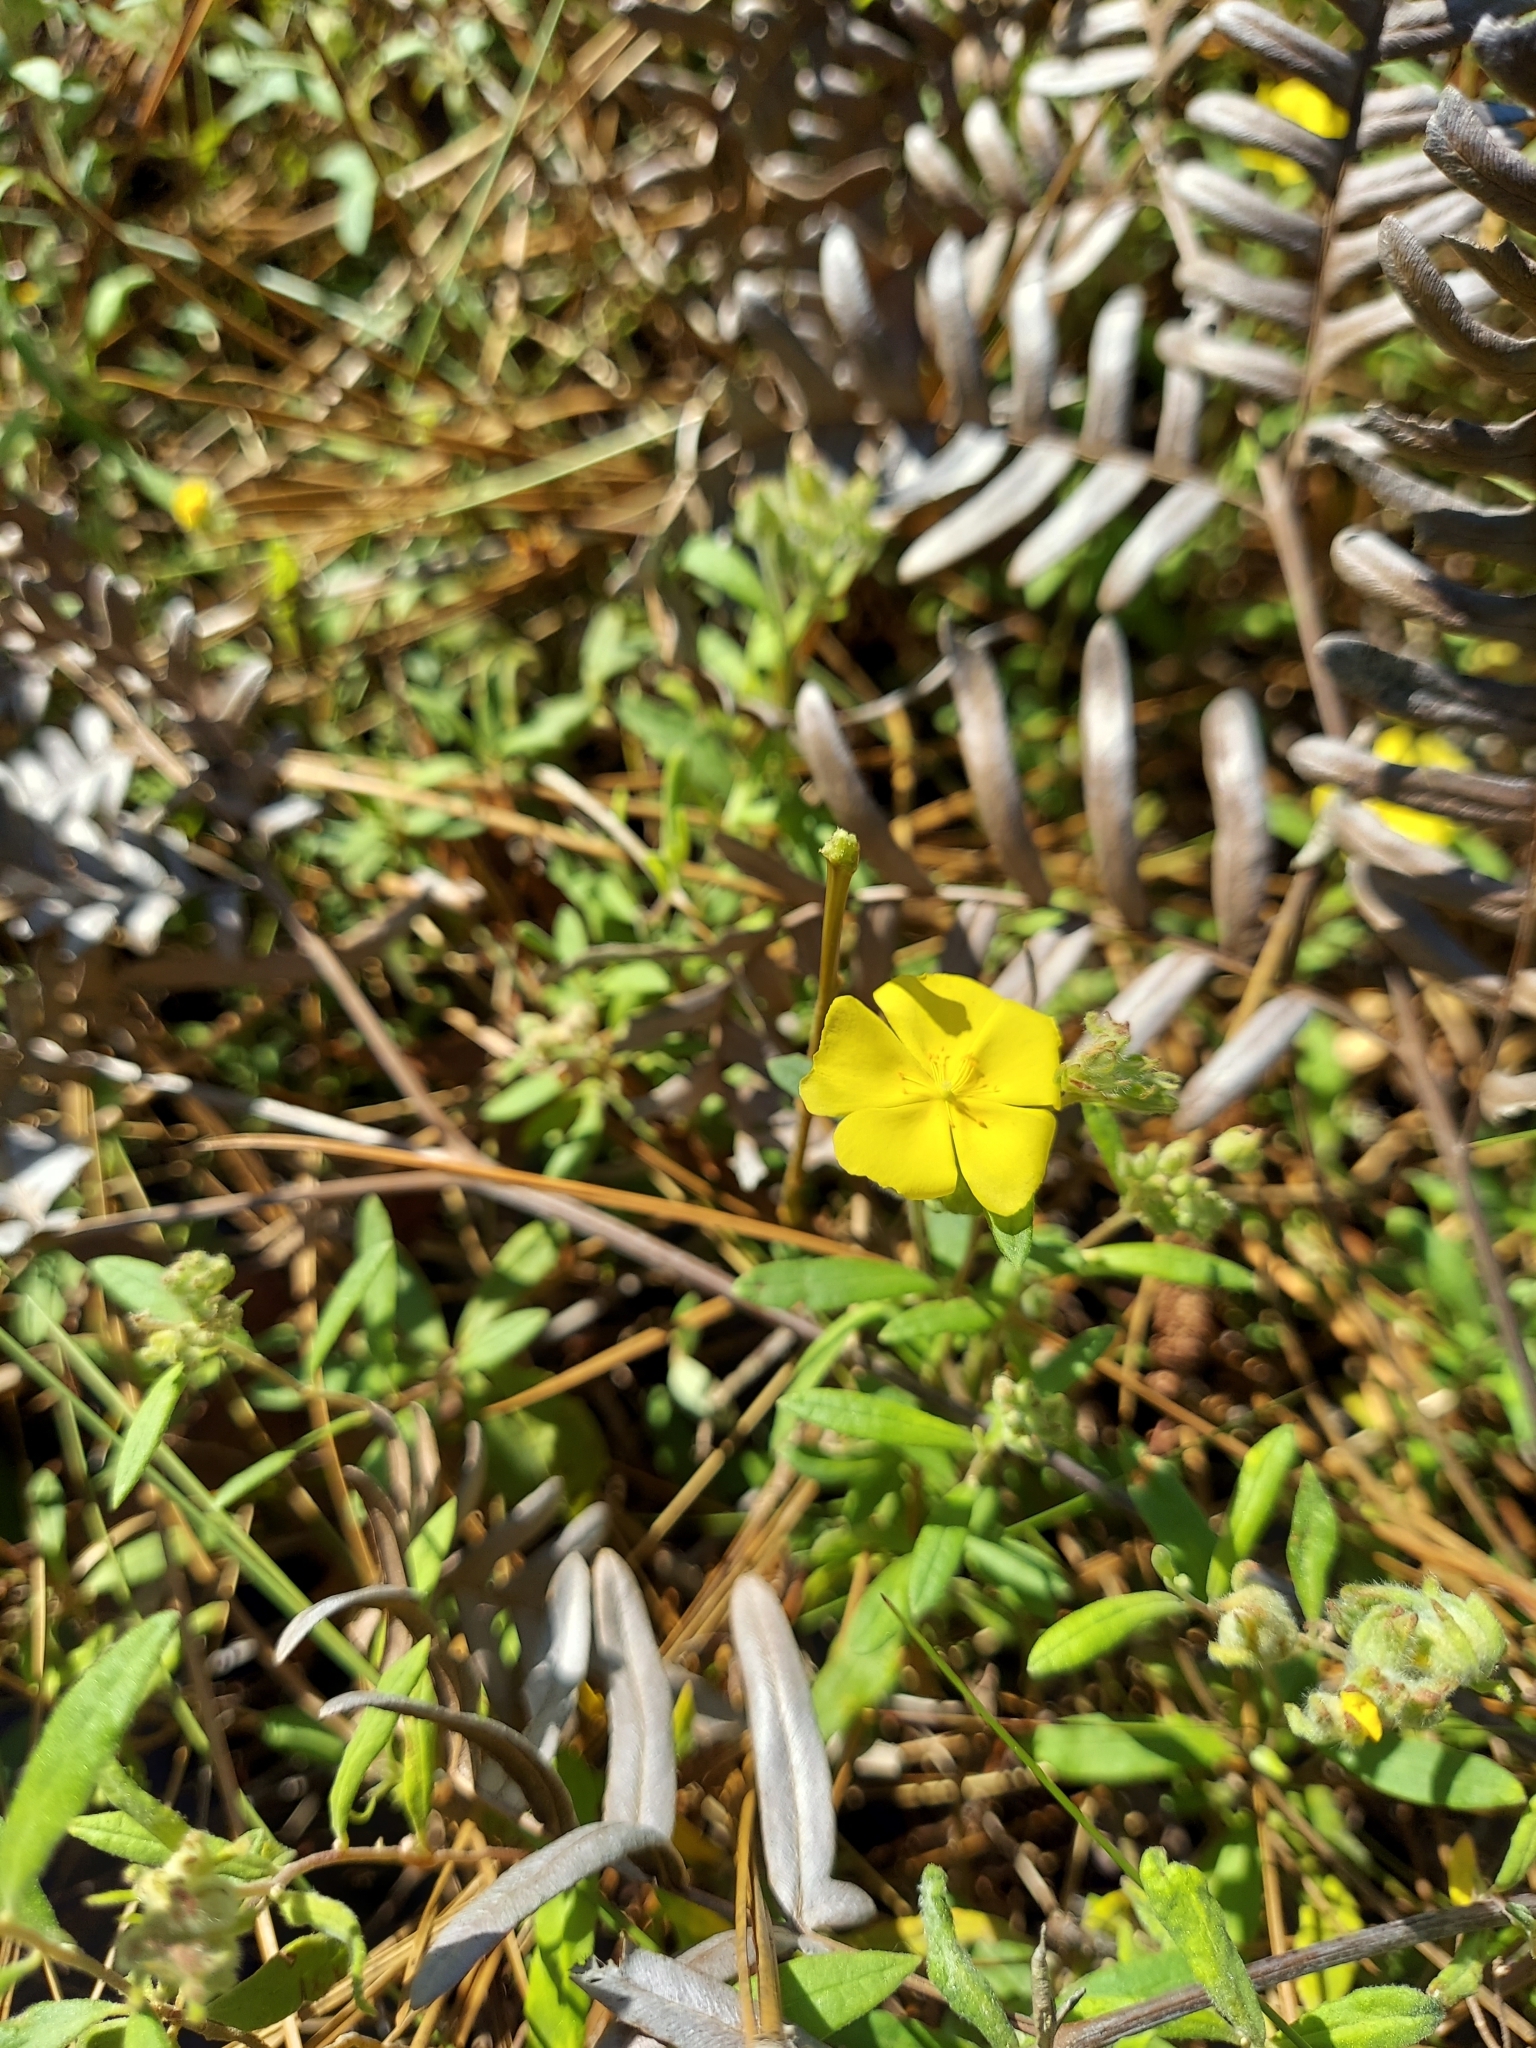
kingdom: Plantae
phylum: Tracheophyta
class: Magnoliopsida
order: Malvales
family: Cistaceae
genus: Crocanthemum
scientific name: Crocanthemum corymbosum
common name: Pinebarren sun-rose
